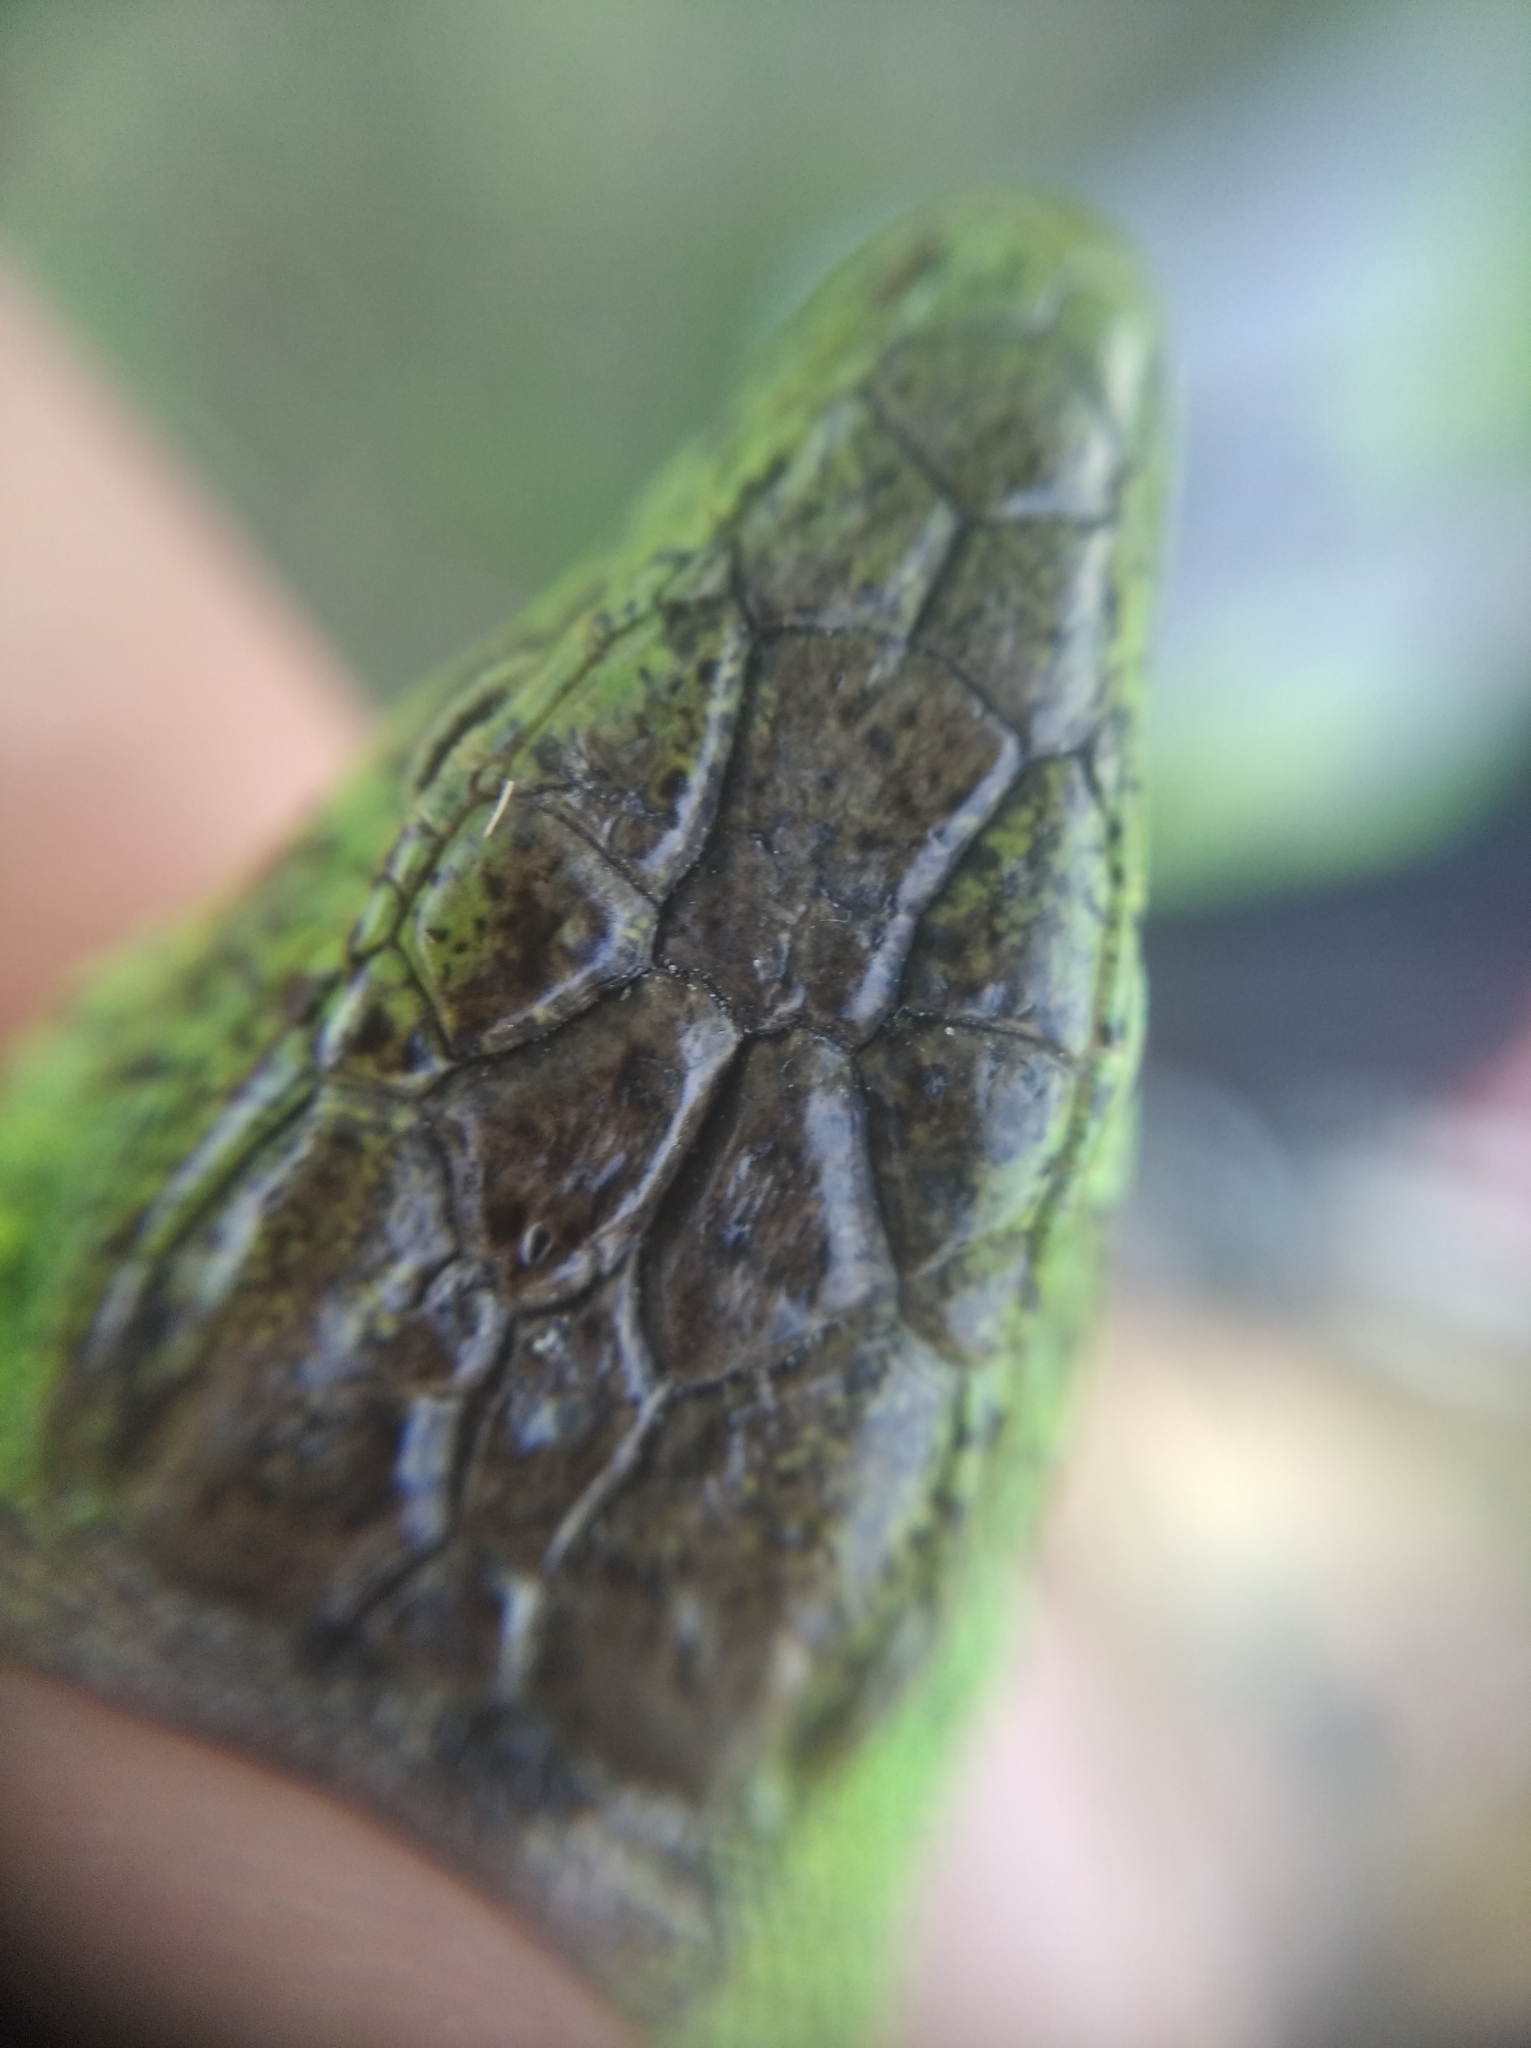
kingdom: Animalia
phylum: Chordata
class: Squamata
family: Lacertidae
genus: Lacerta
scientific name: Lacerta agilis
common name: Sand lizard
